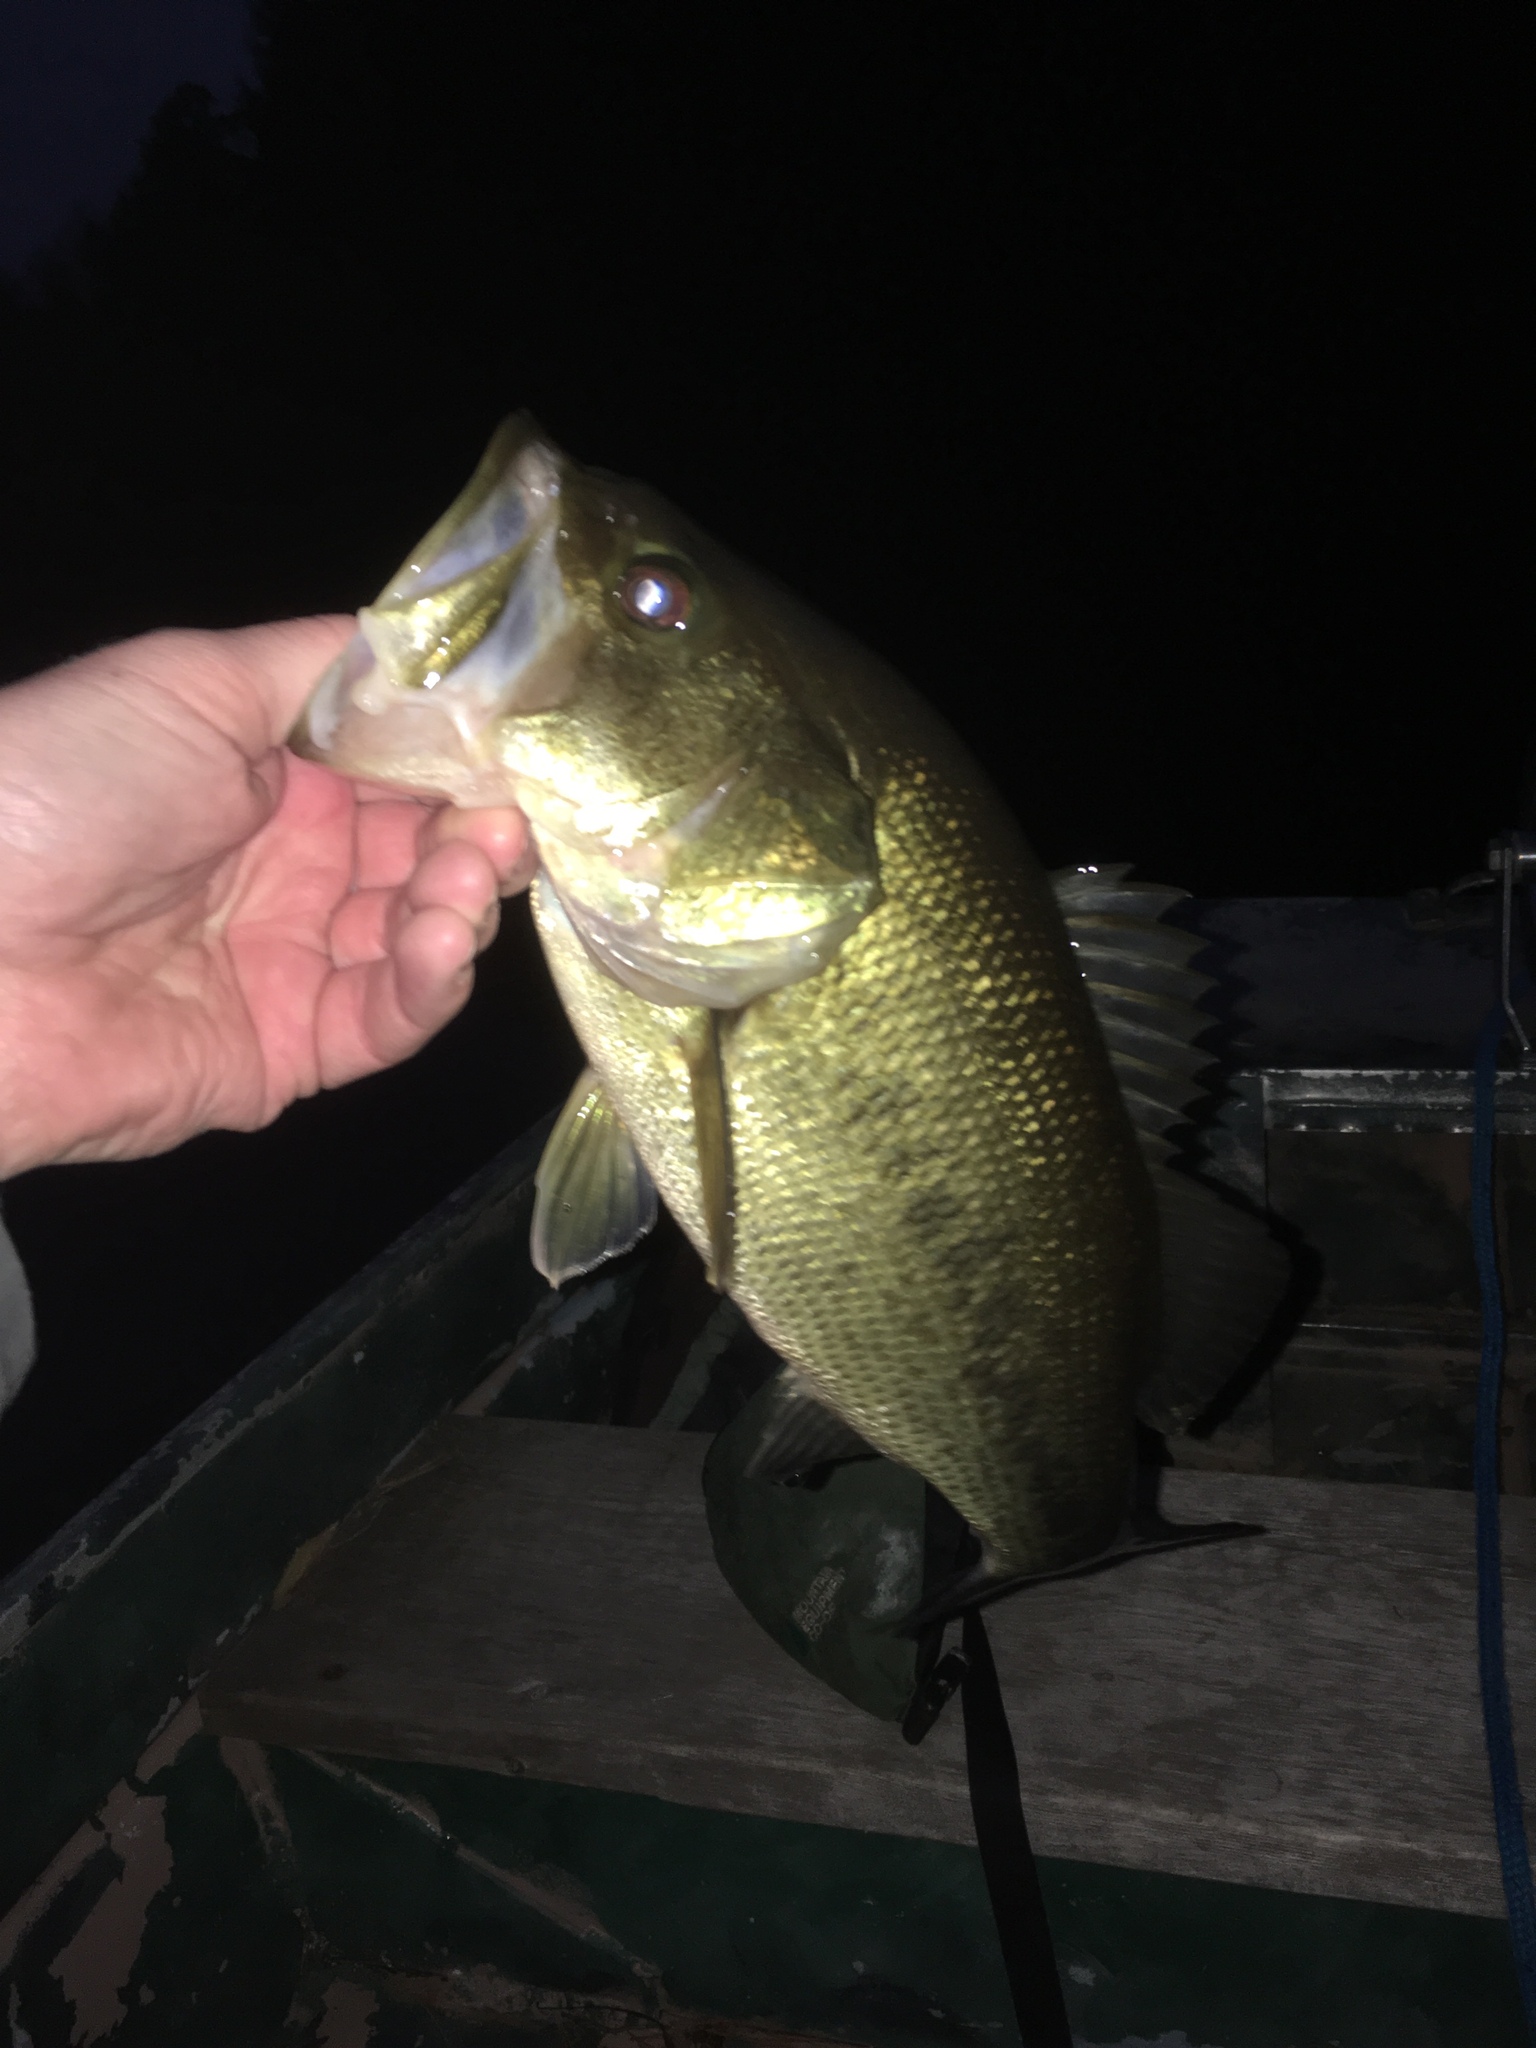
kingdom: Animalia
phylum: Chordata
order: Perciformes
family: Centrarchidae
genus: Micropterus
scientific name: Micropterus
